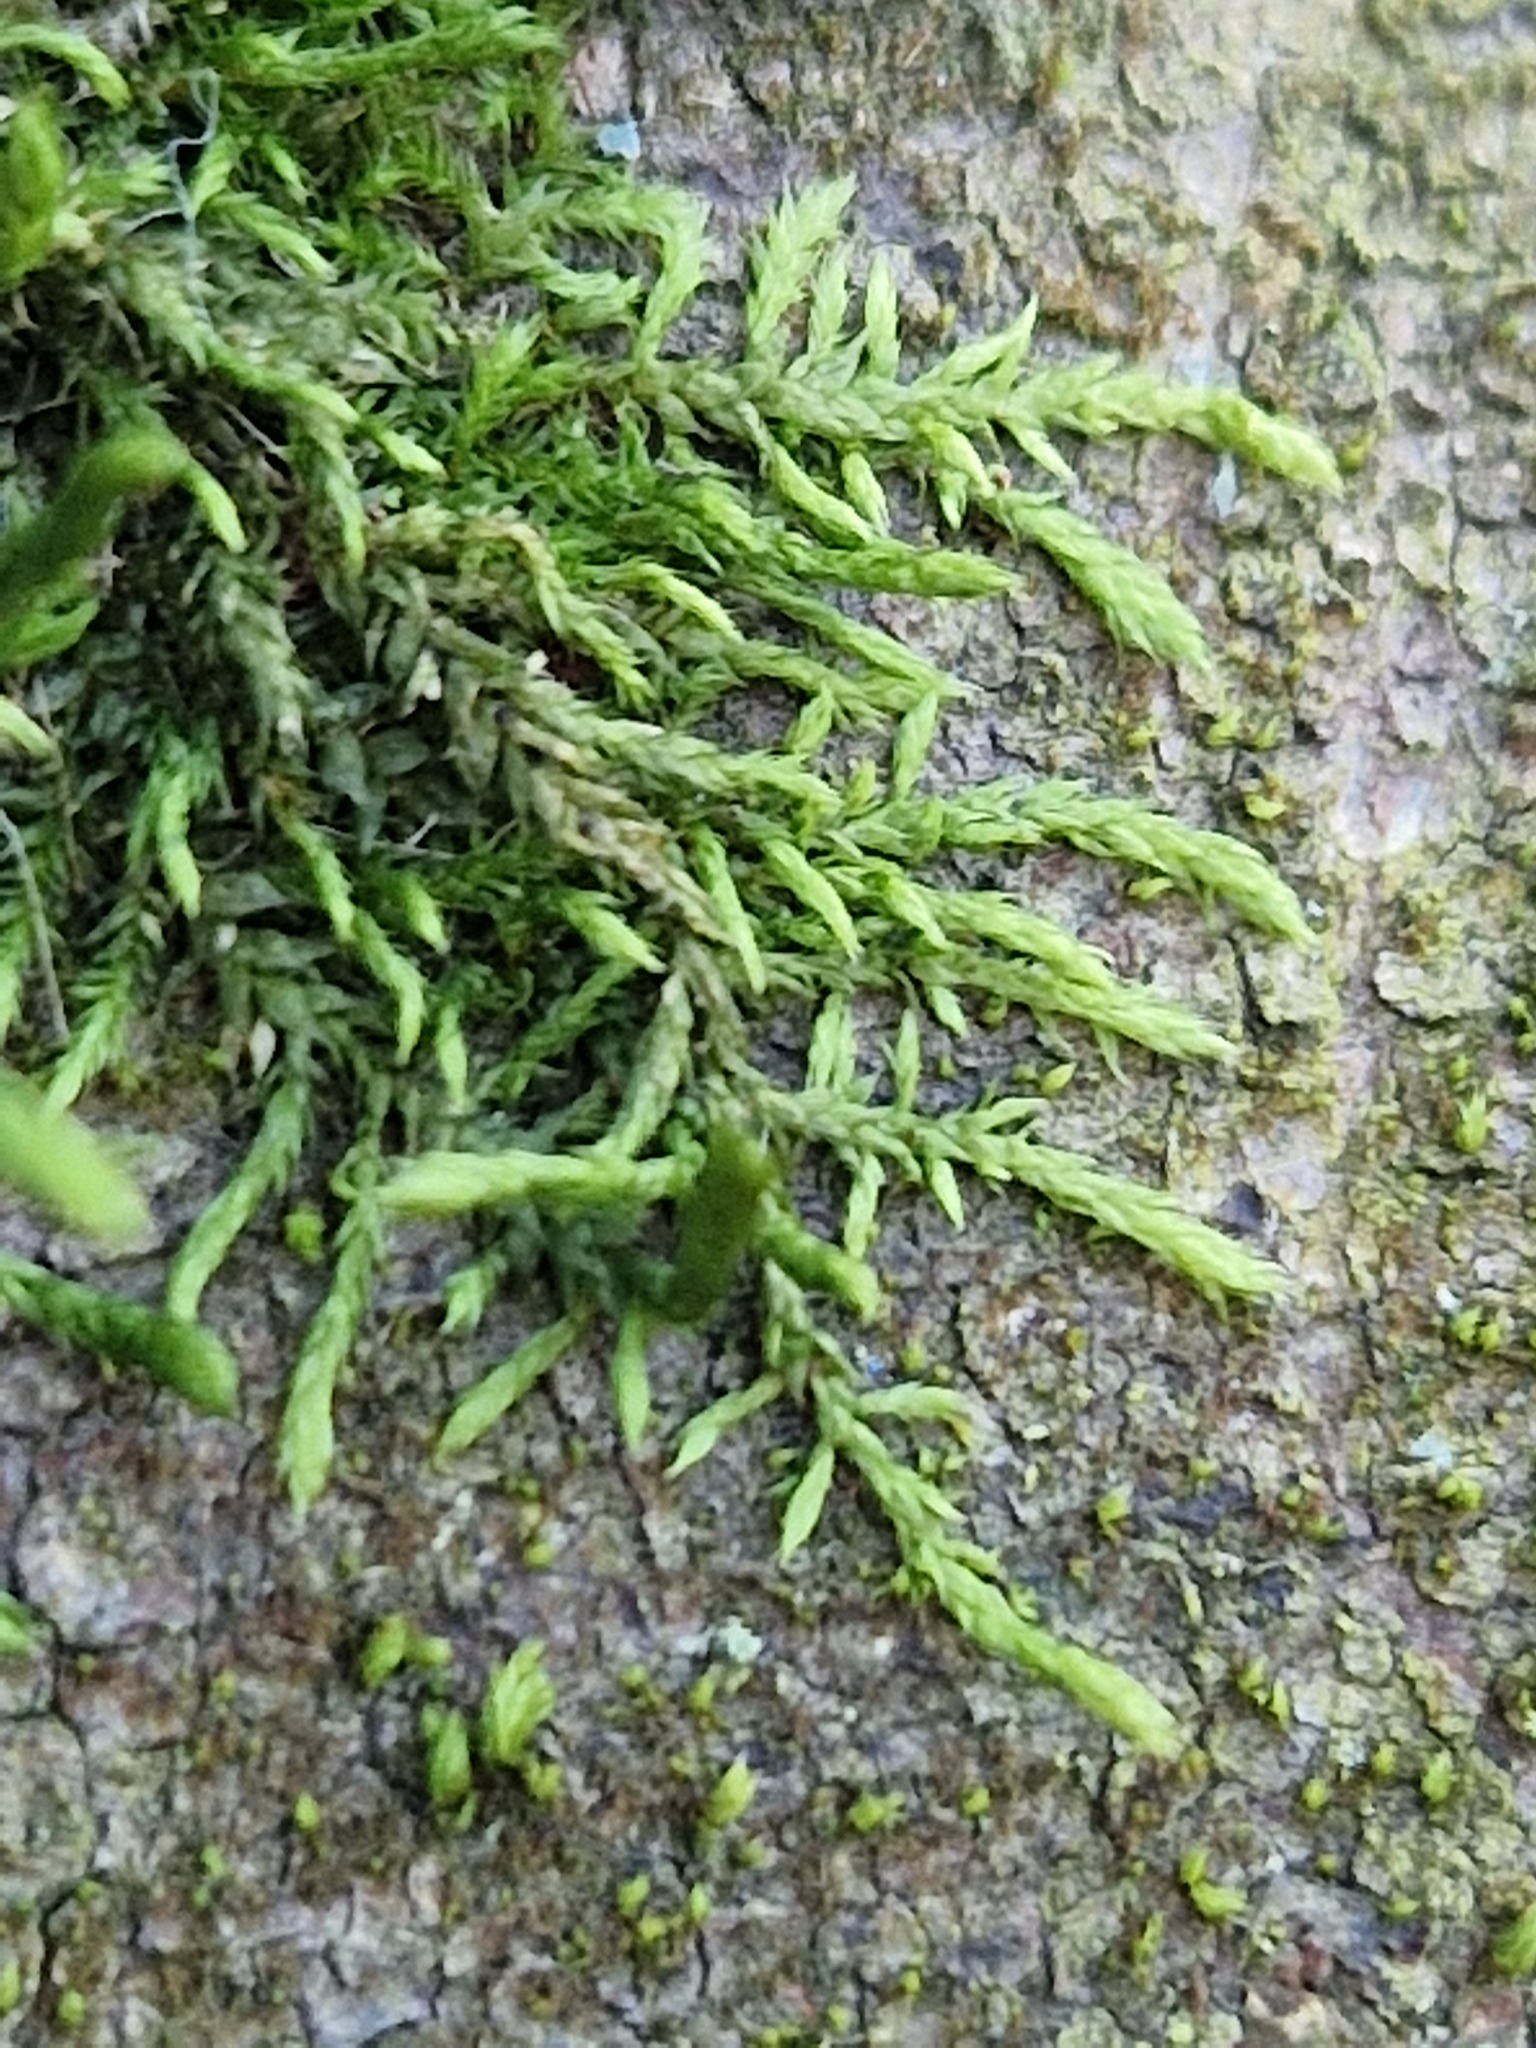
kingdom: Plantae
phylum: Bryophyta
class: Bryopsida
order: Hypnales
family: Cryphaeaceae
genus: Cryphaea
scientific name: Cryphaea heteromalla
